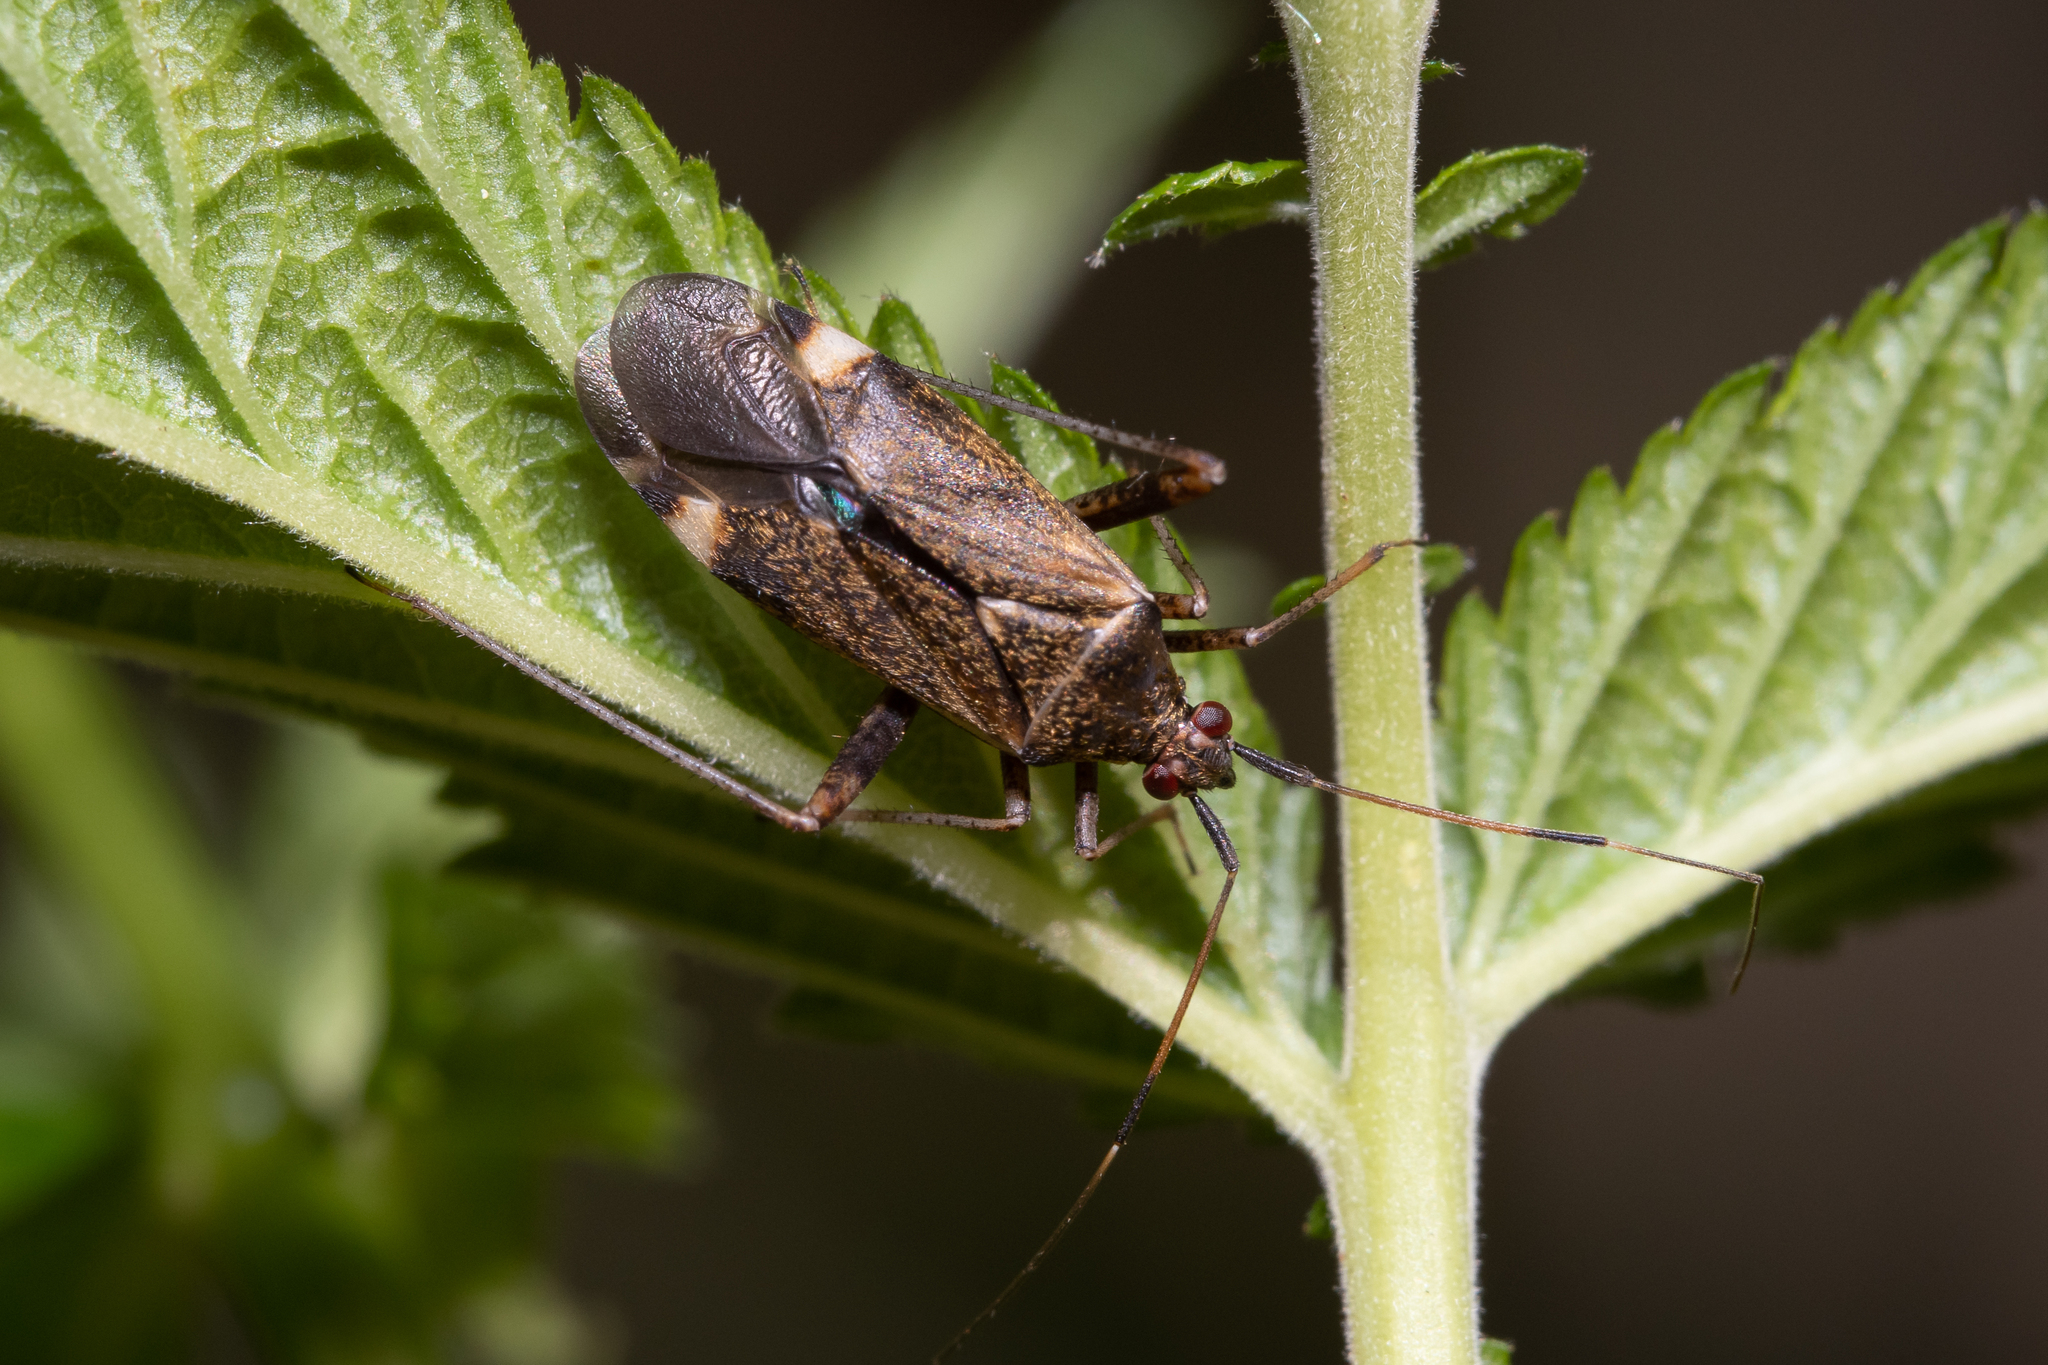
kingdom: Animalia
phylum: Arthropoda
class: Insecta
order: Hemiptera
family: Miridae
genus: Closterotomus
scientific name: Closterotomus fulvomaculatus
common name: Spotted plant bug
